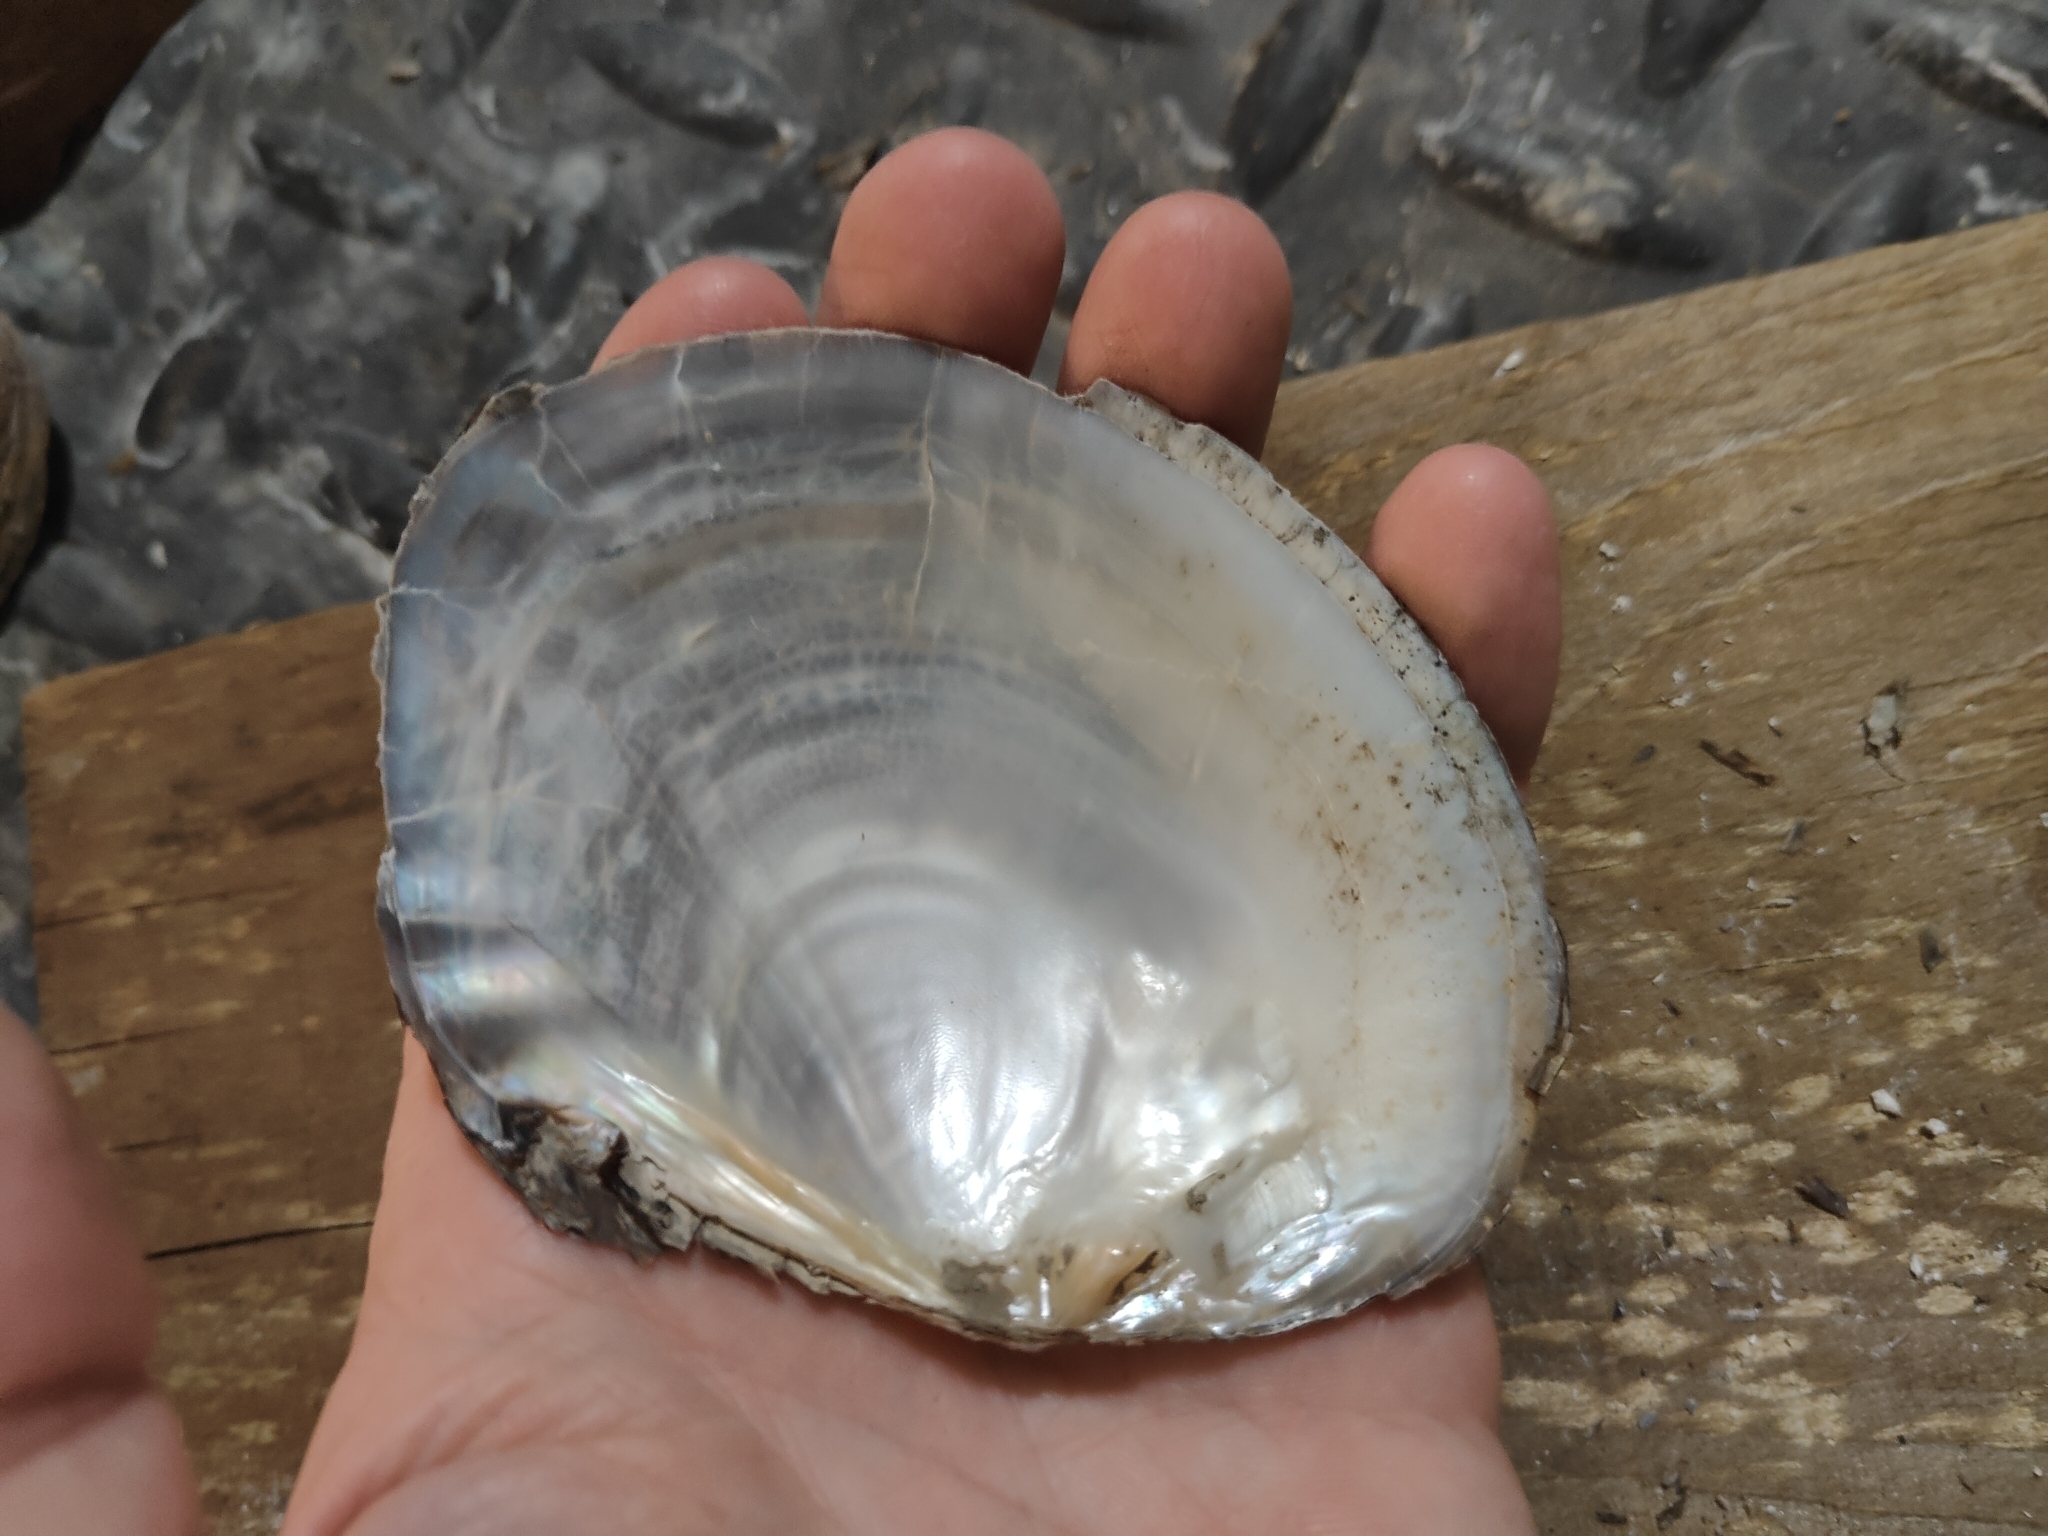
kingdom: Animalia
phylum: Mollusca
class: Bivalvia
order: Unionida
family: Unionidae
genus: Lasmigona
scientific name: Lasmigona complanata
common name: White heelsplitter
